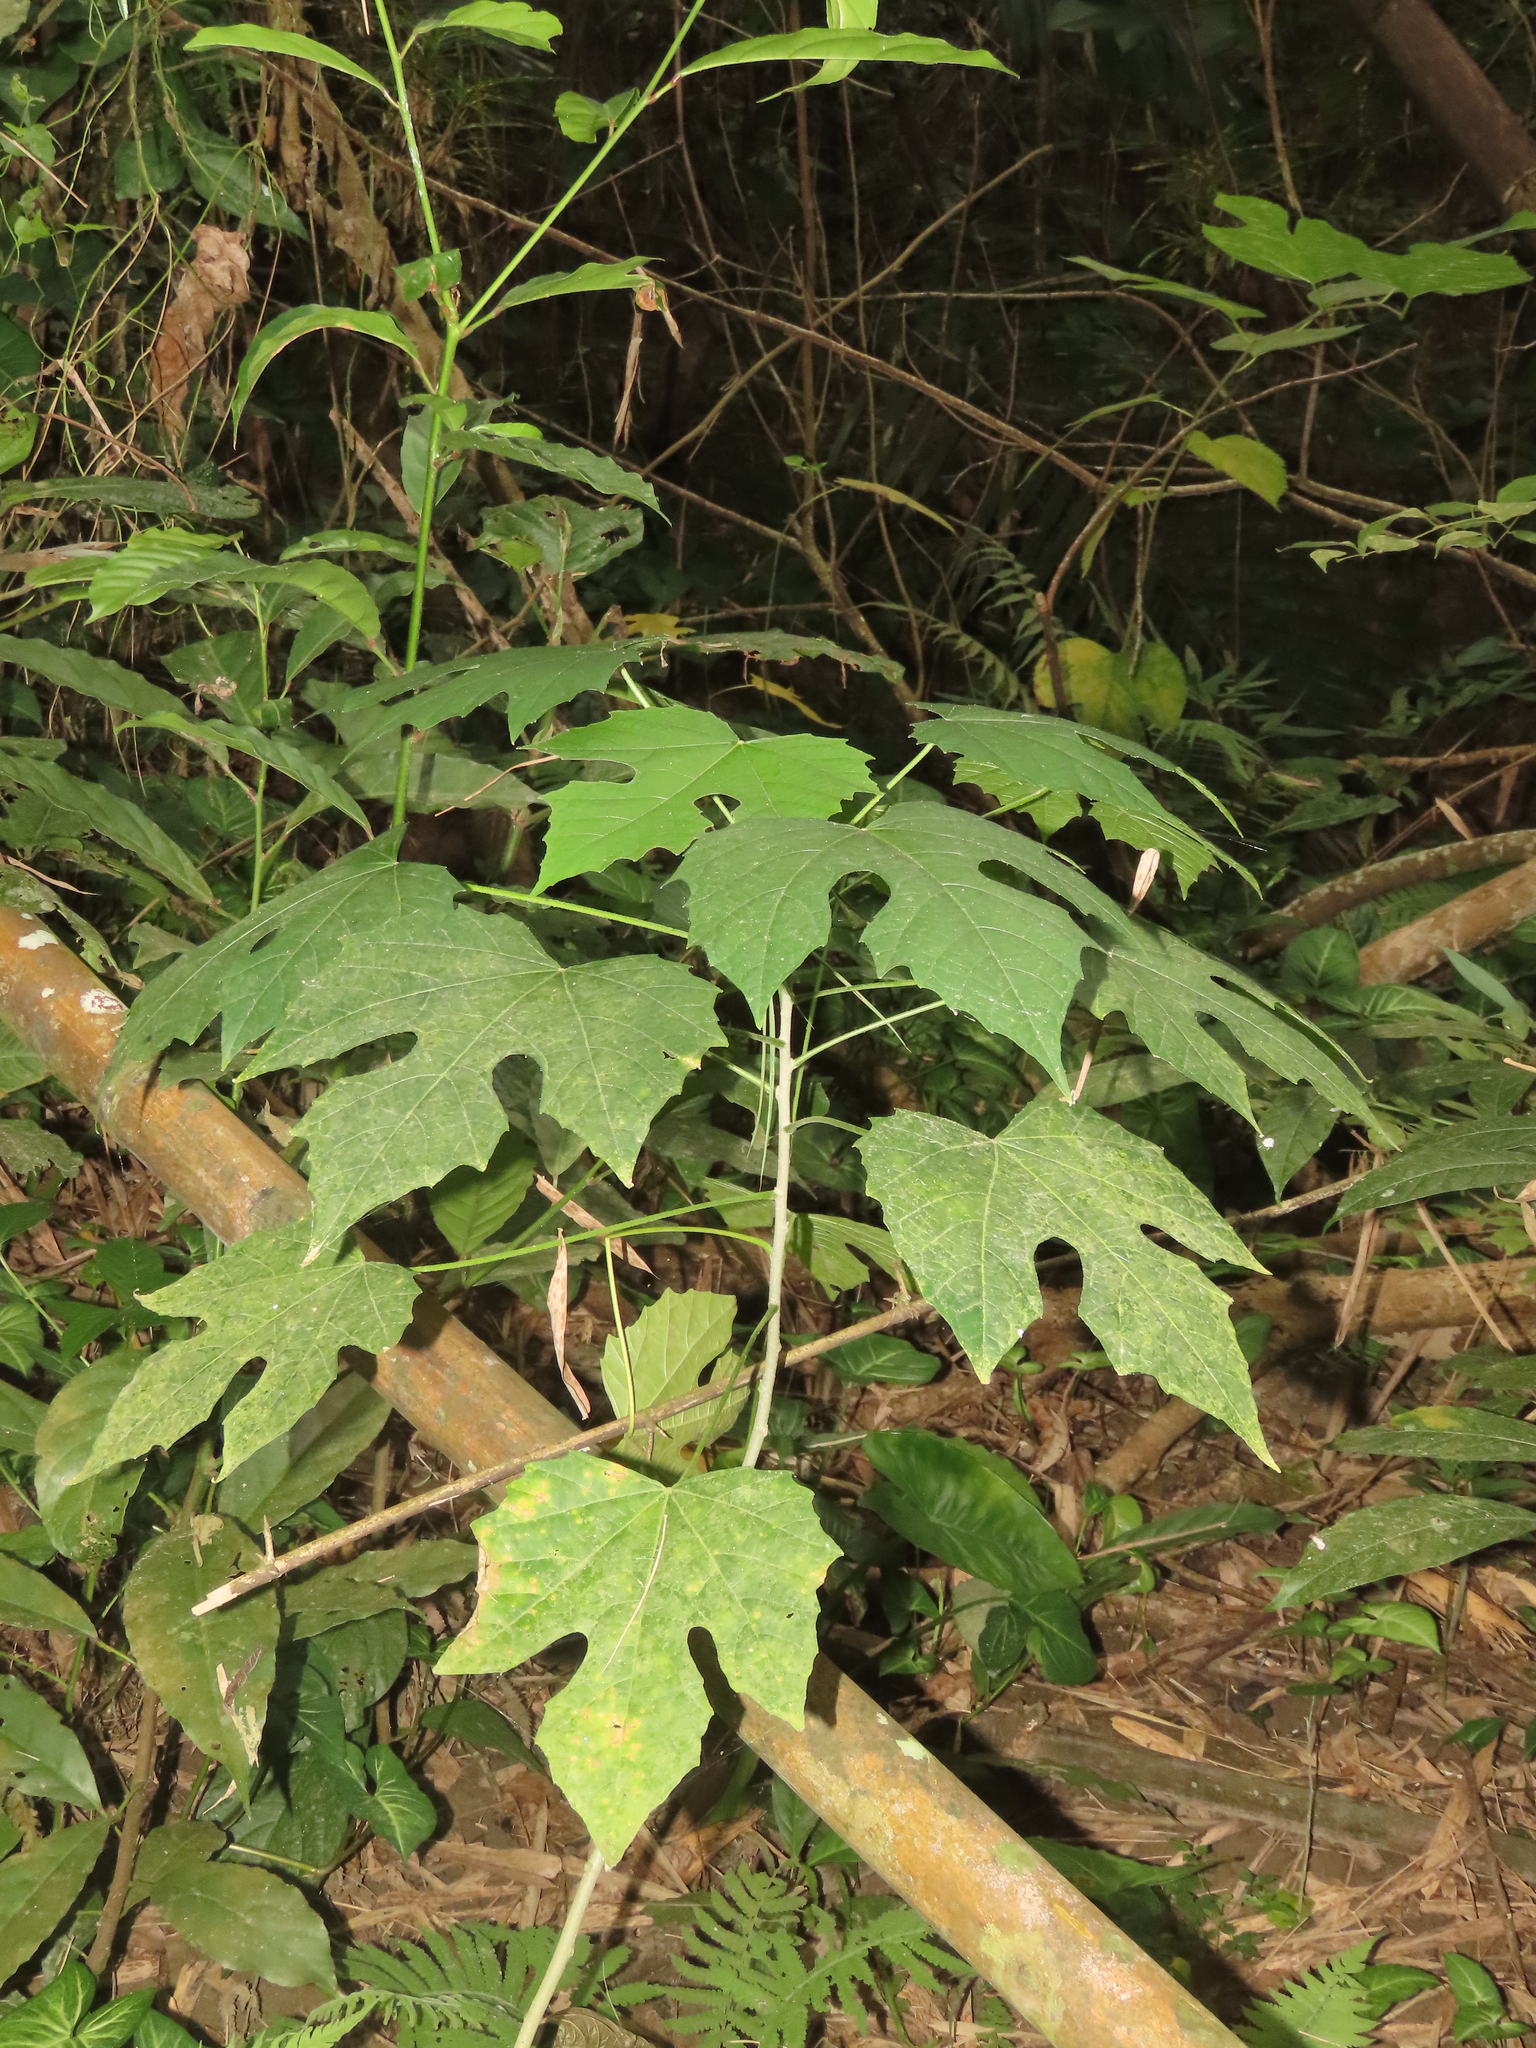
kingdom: Plantae
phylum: Tracheophyta
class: Magnoliopsida
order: Malpighiales
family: Euphorbiaceae
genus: Melanolepis
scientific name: Melanolepis multiglandulosa
